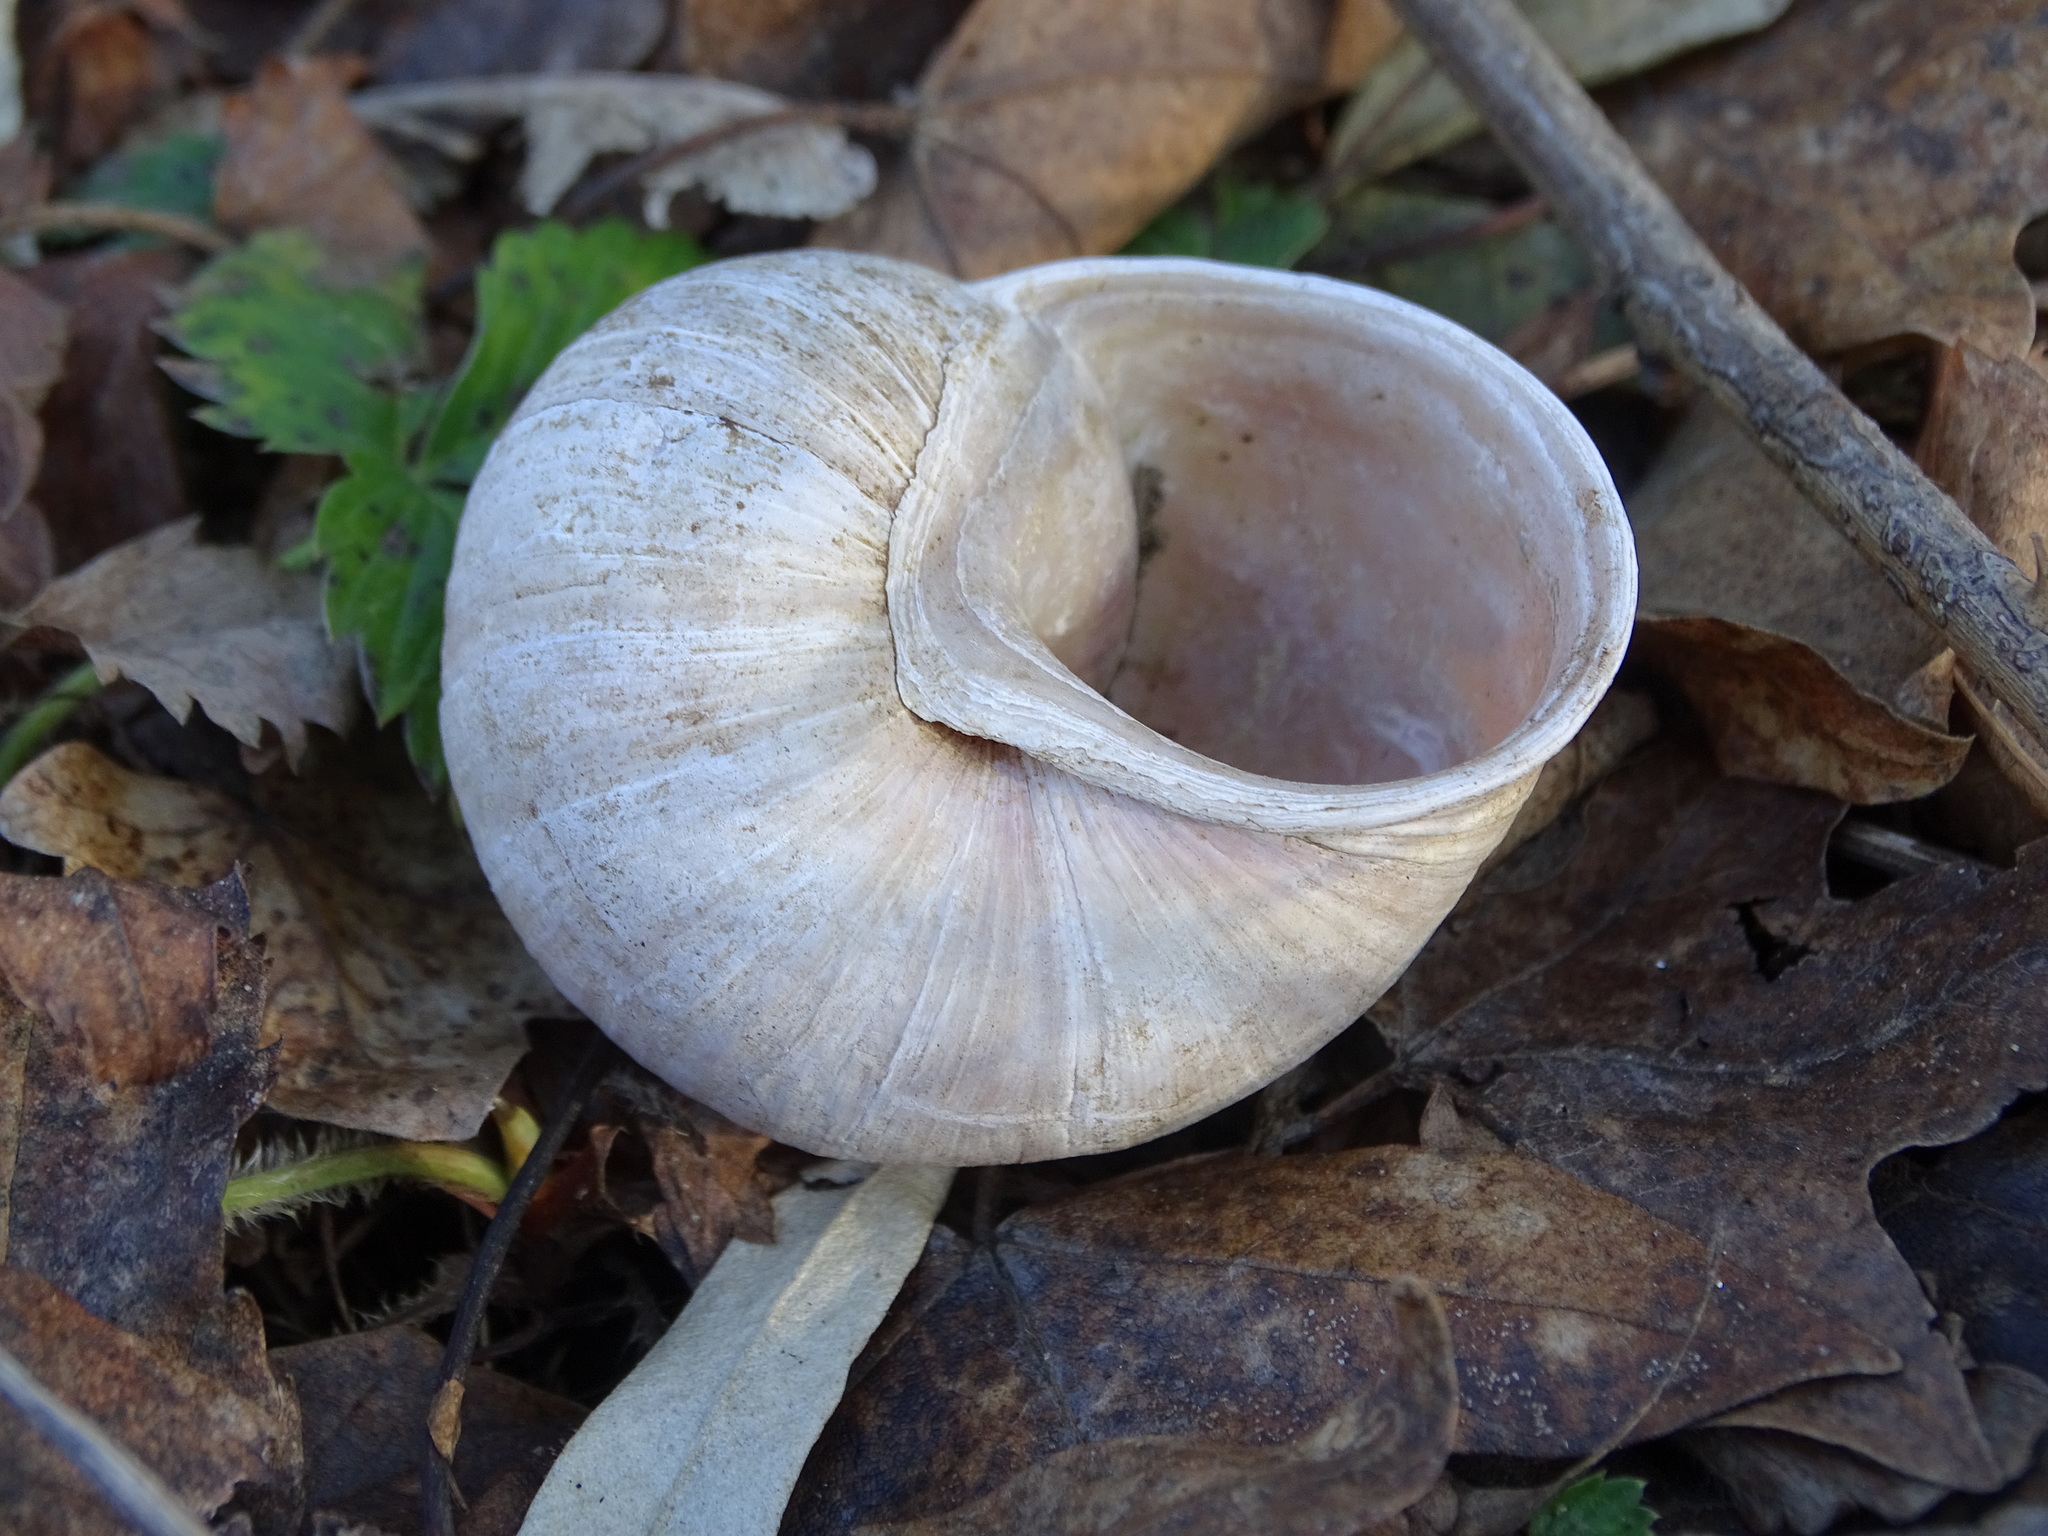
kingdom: Animalia
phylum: Mollusca
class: Gastropoda
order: Stylommatophora
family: Helicidae
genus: Helix
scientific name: Helix pomatia
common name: Roman snail
